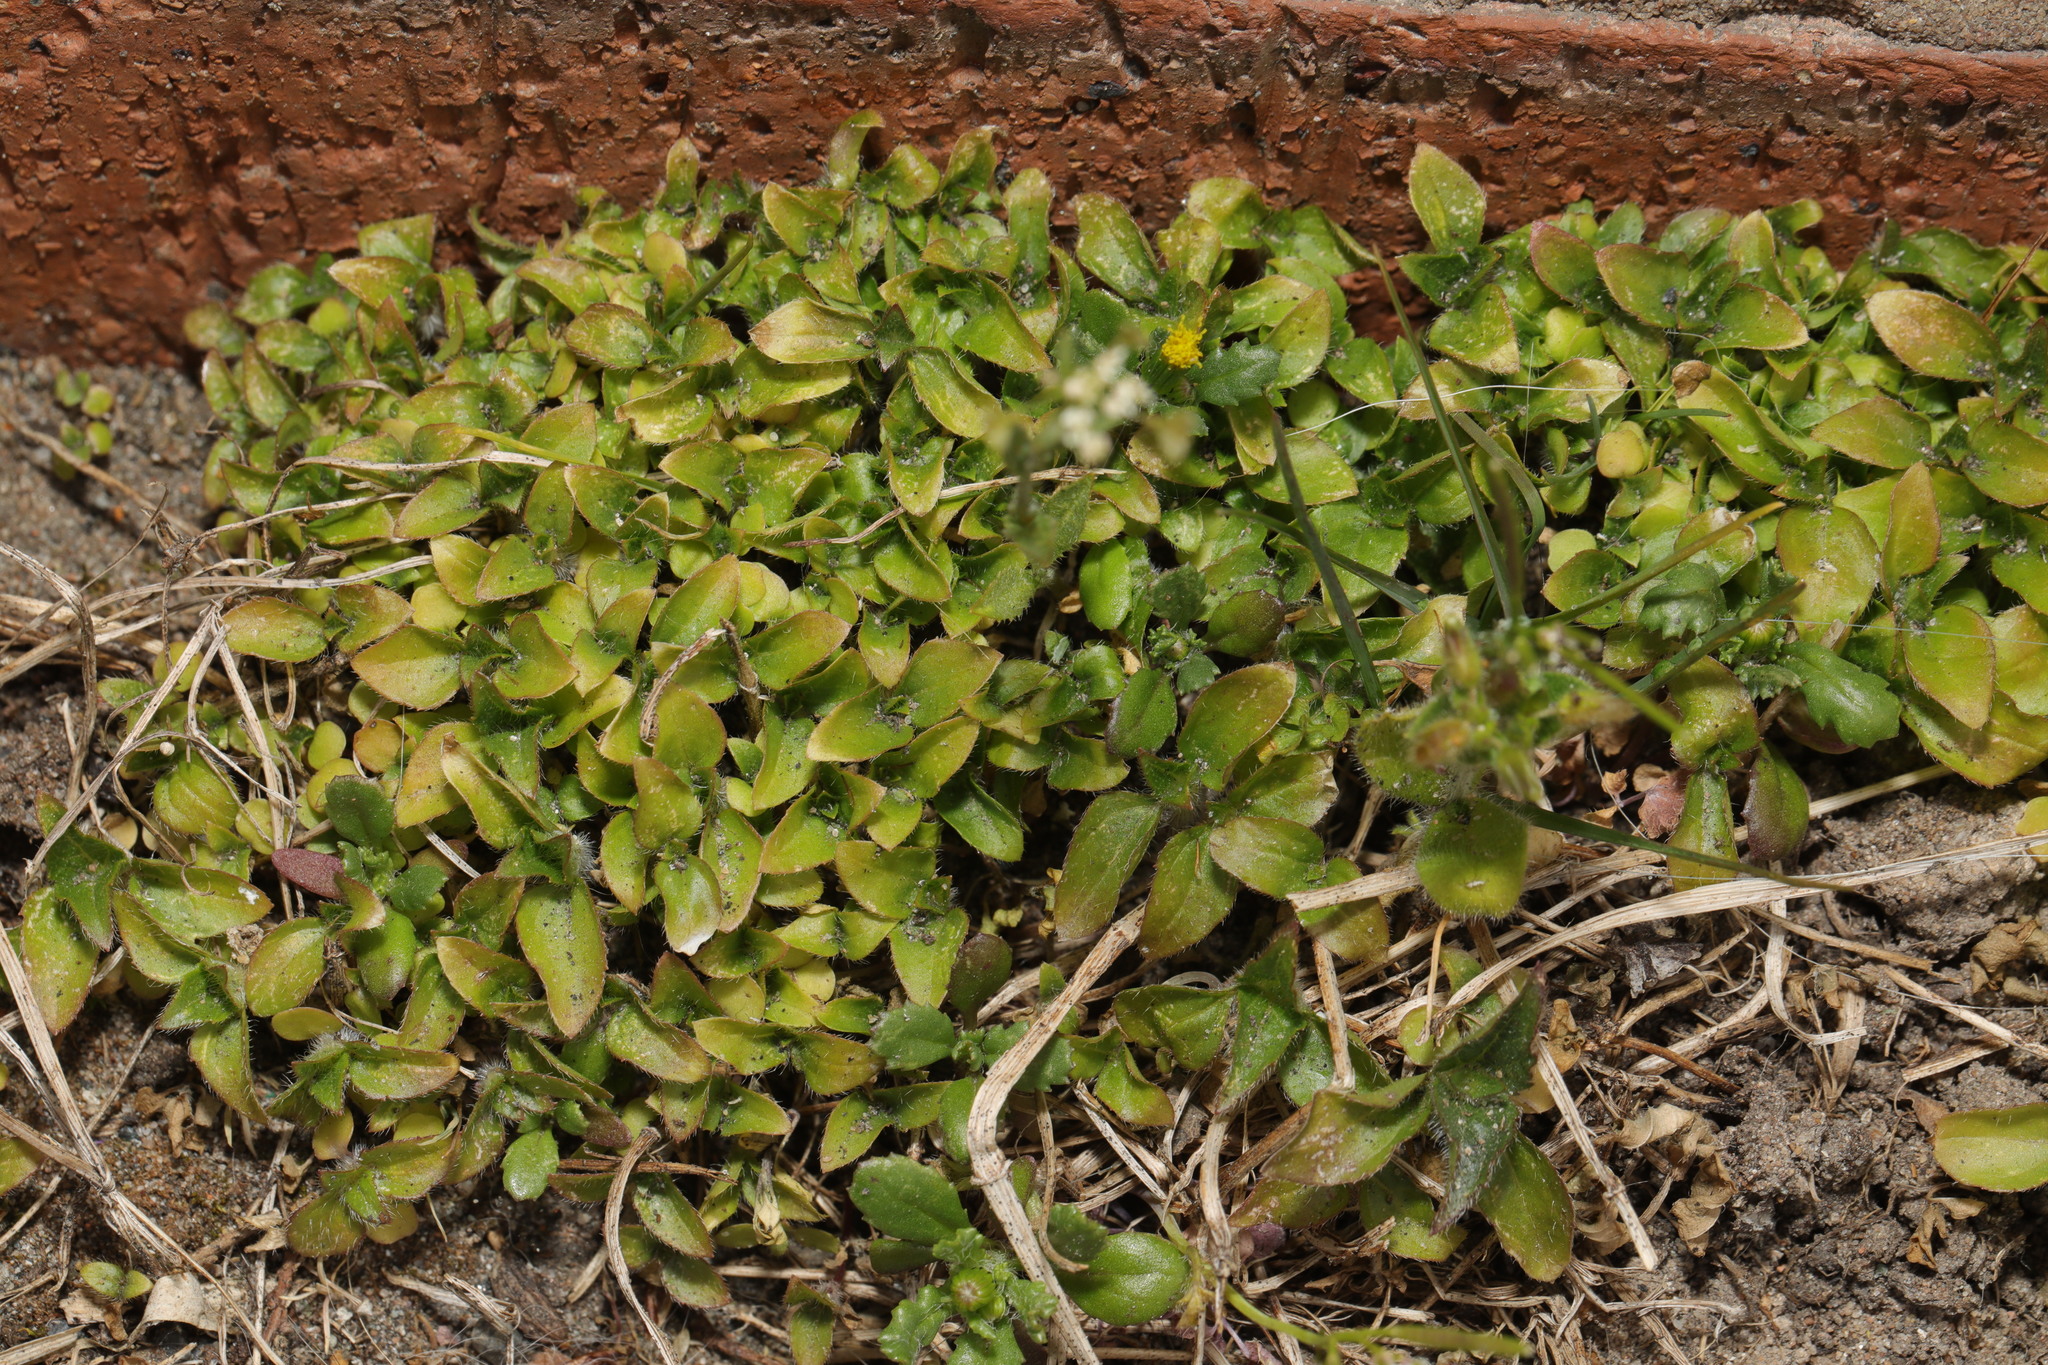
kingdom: Plantae
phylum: Tracheophyta
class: Magnoliopsida
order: Caryophyllales
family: Caryophyllaceae
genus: Cerastium
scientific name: Cerastium fontanum
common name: Common mouse-ear
